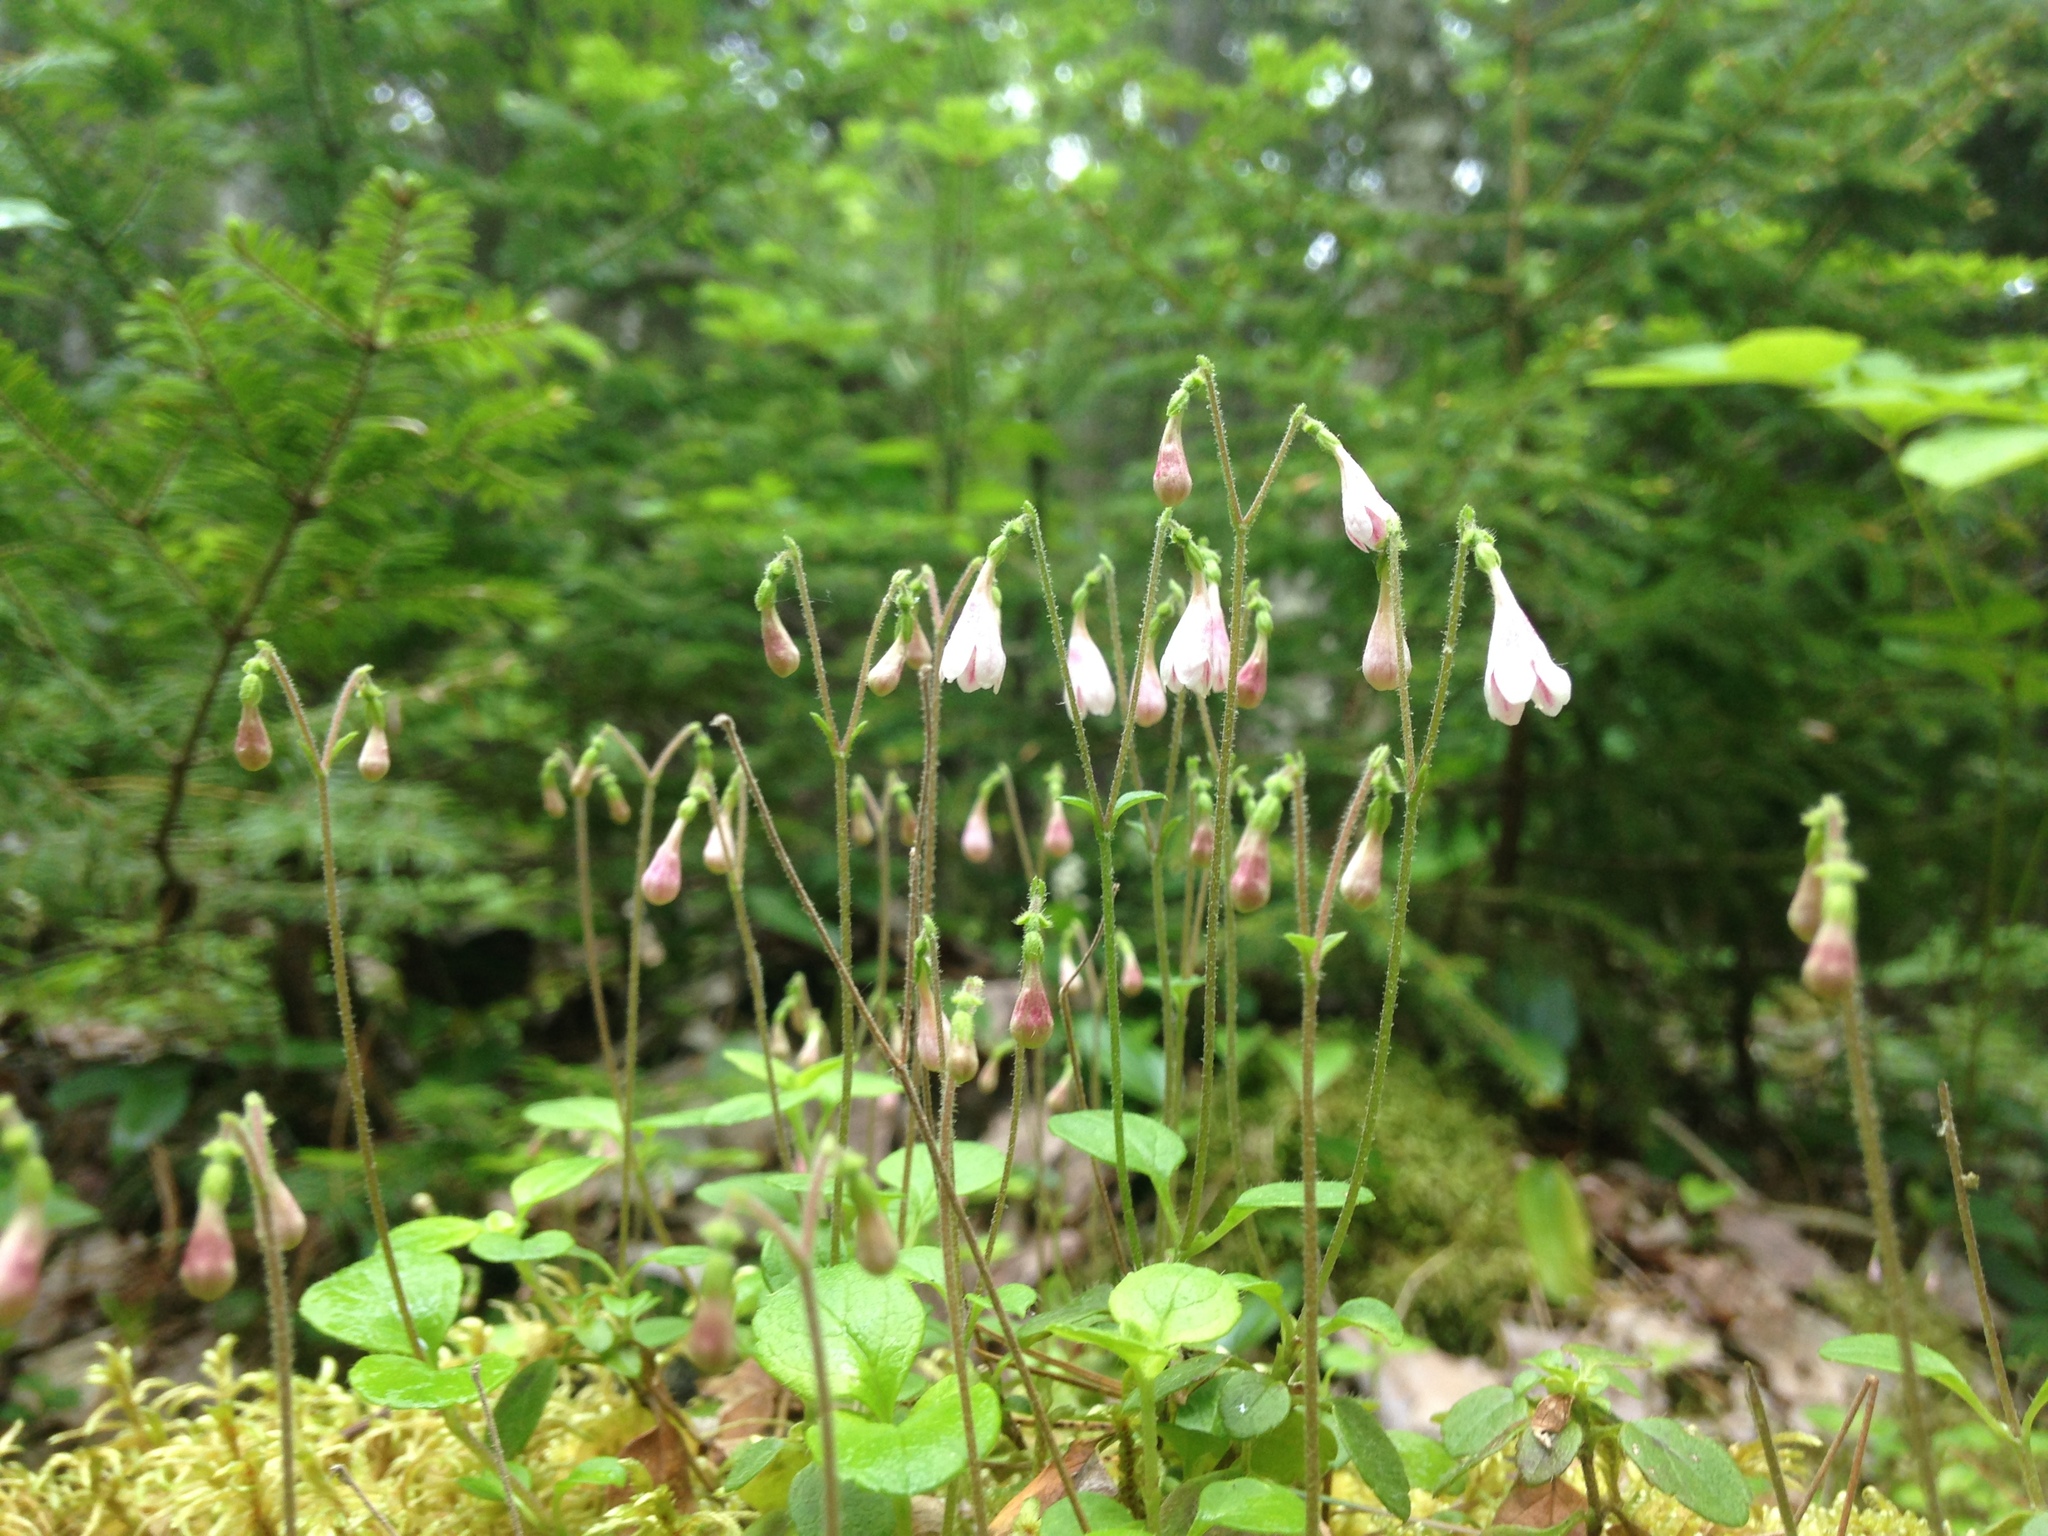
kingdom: Plantae
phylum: Tracheophyta
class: Magnoliopsida
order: Dipsacales
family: Caprifoliaceae
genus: Linnaea
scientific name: Linnaea borealis
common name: Twinflower
